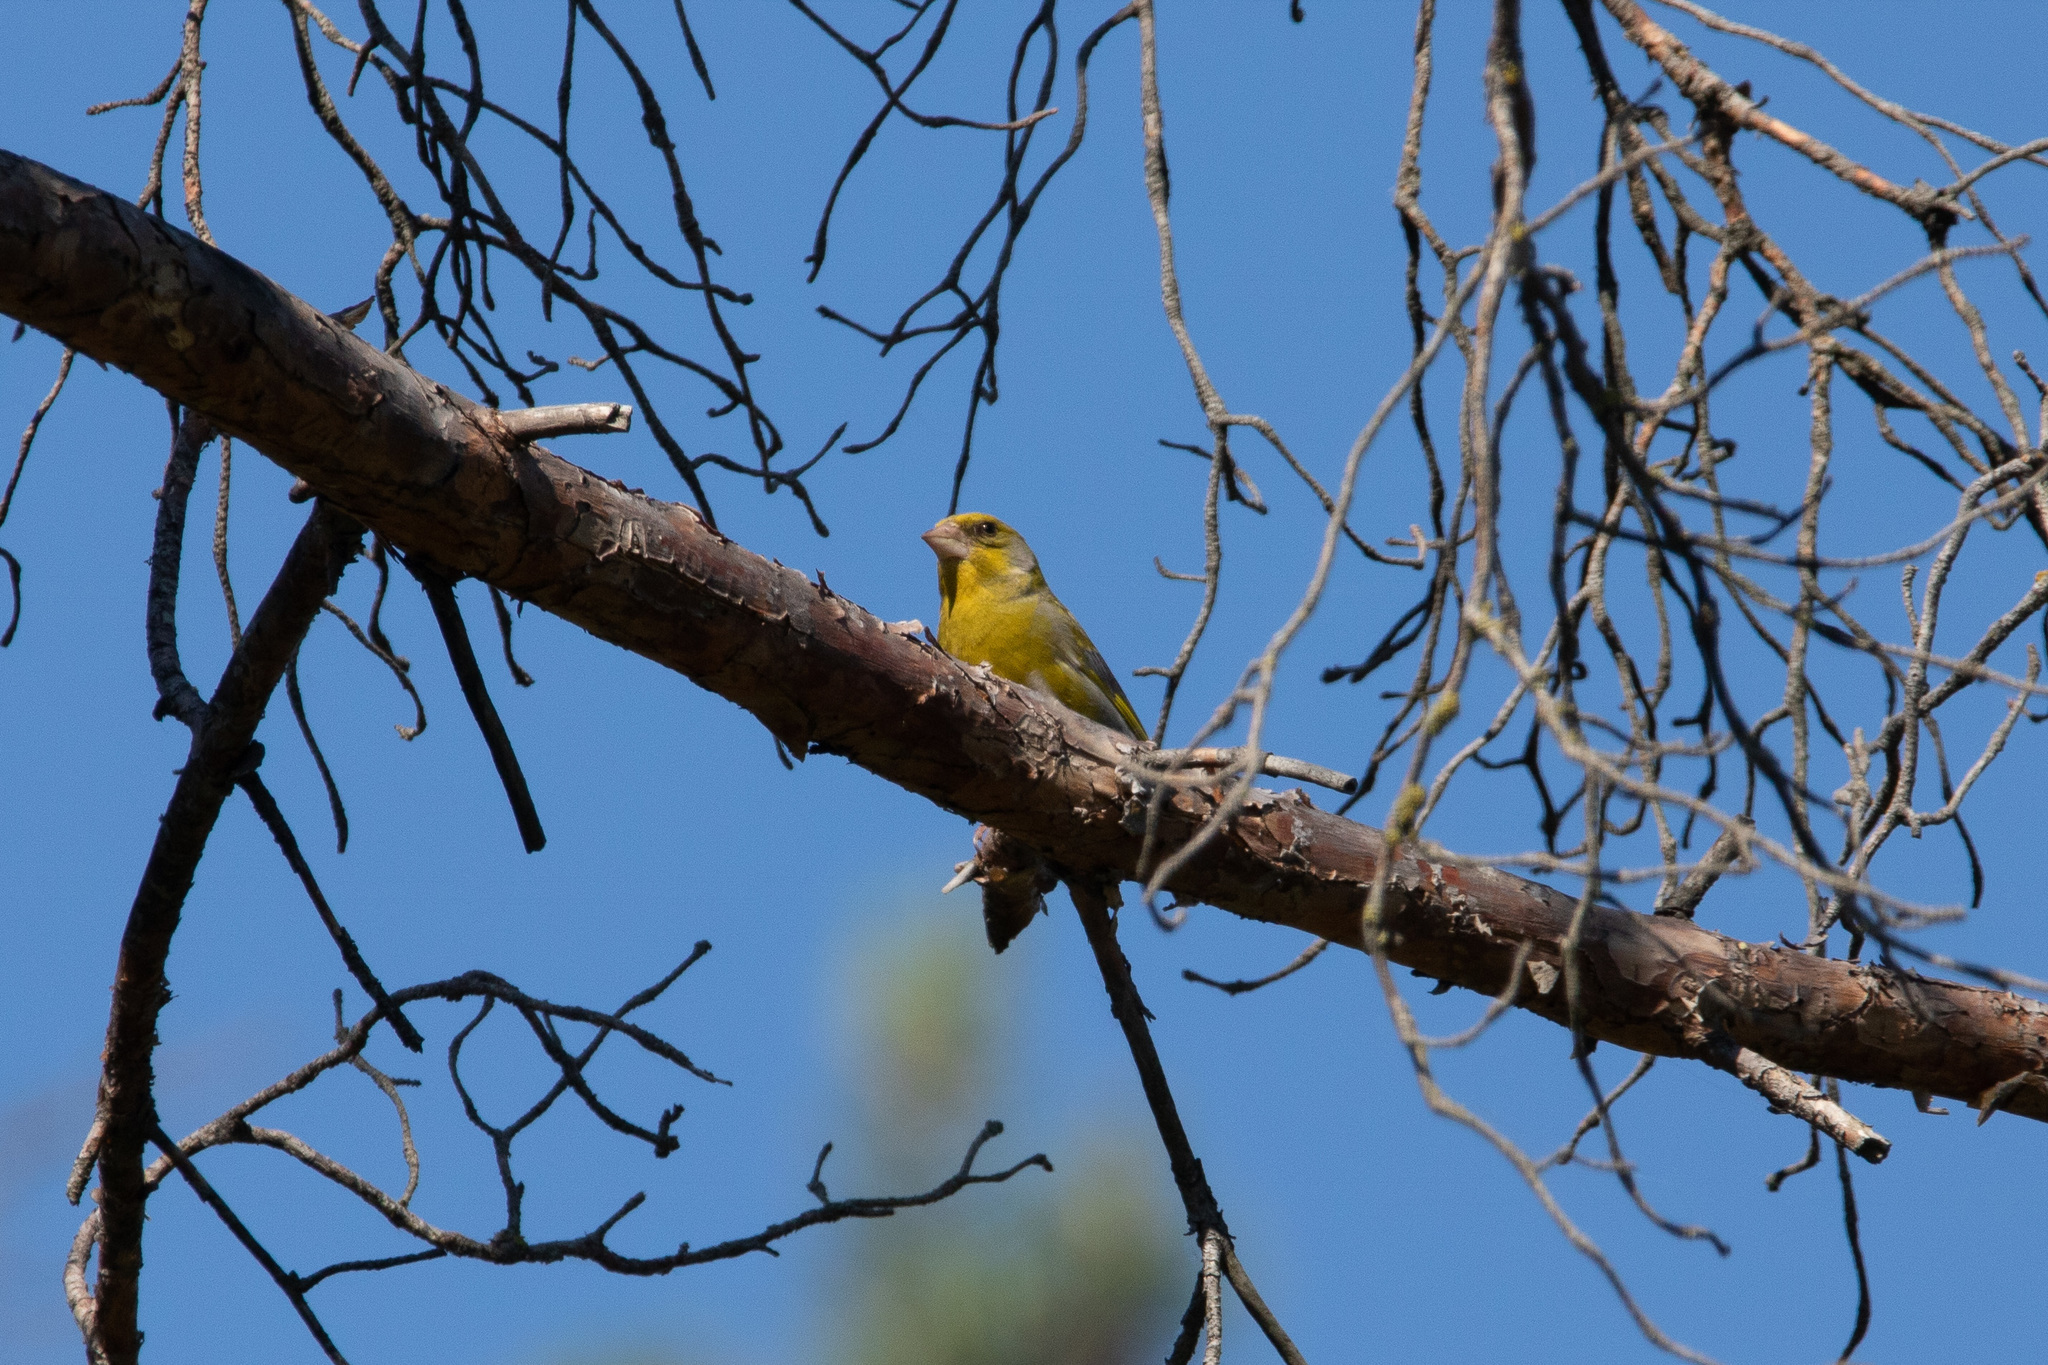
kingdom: Plantae
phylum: Tracheophyta
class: Liliopsida
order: Poales
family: Poaceae
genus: Chloris
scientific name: Chloris chloris
